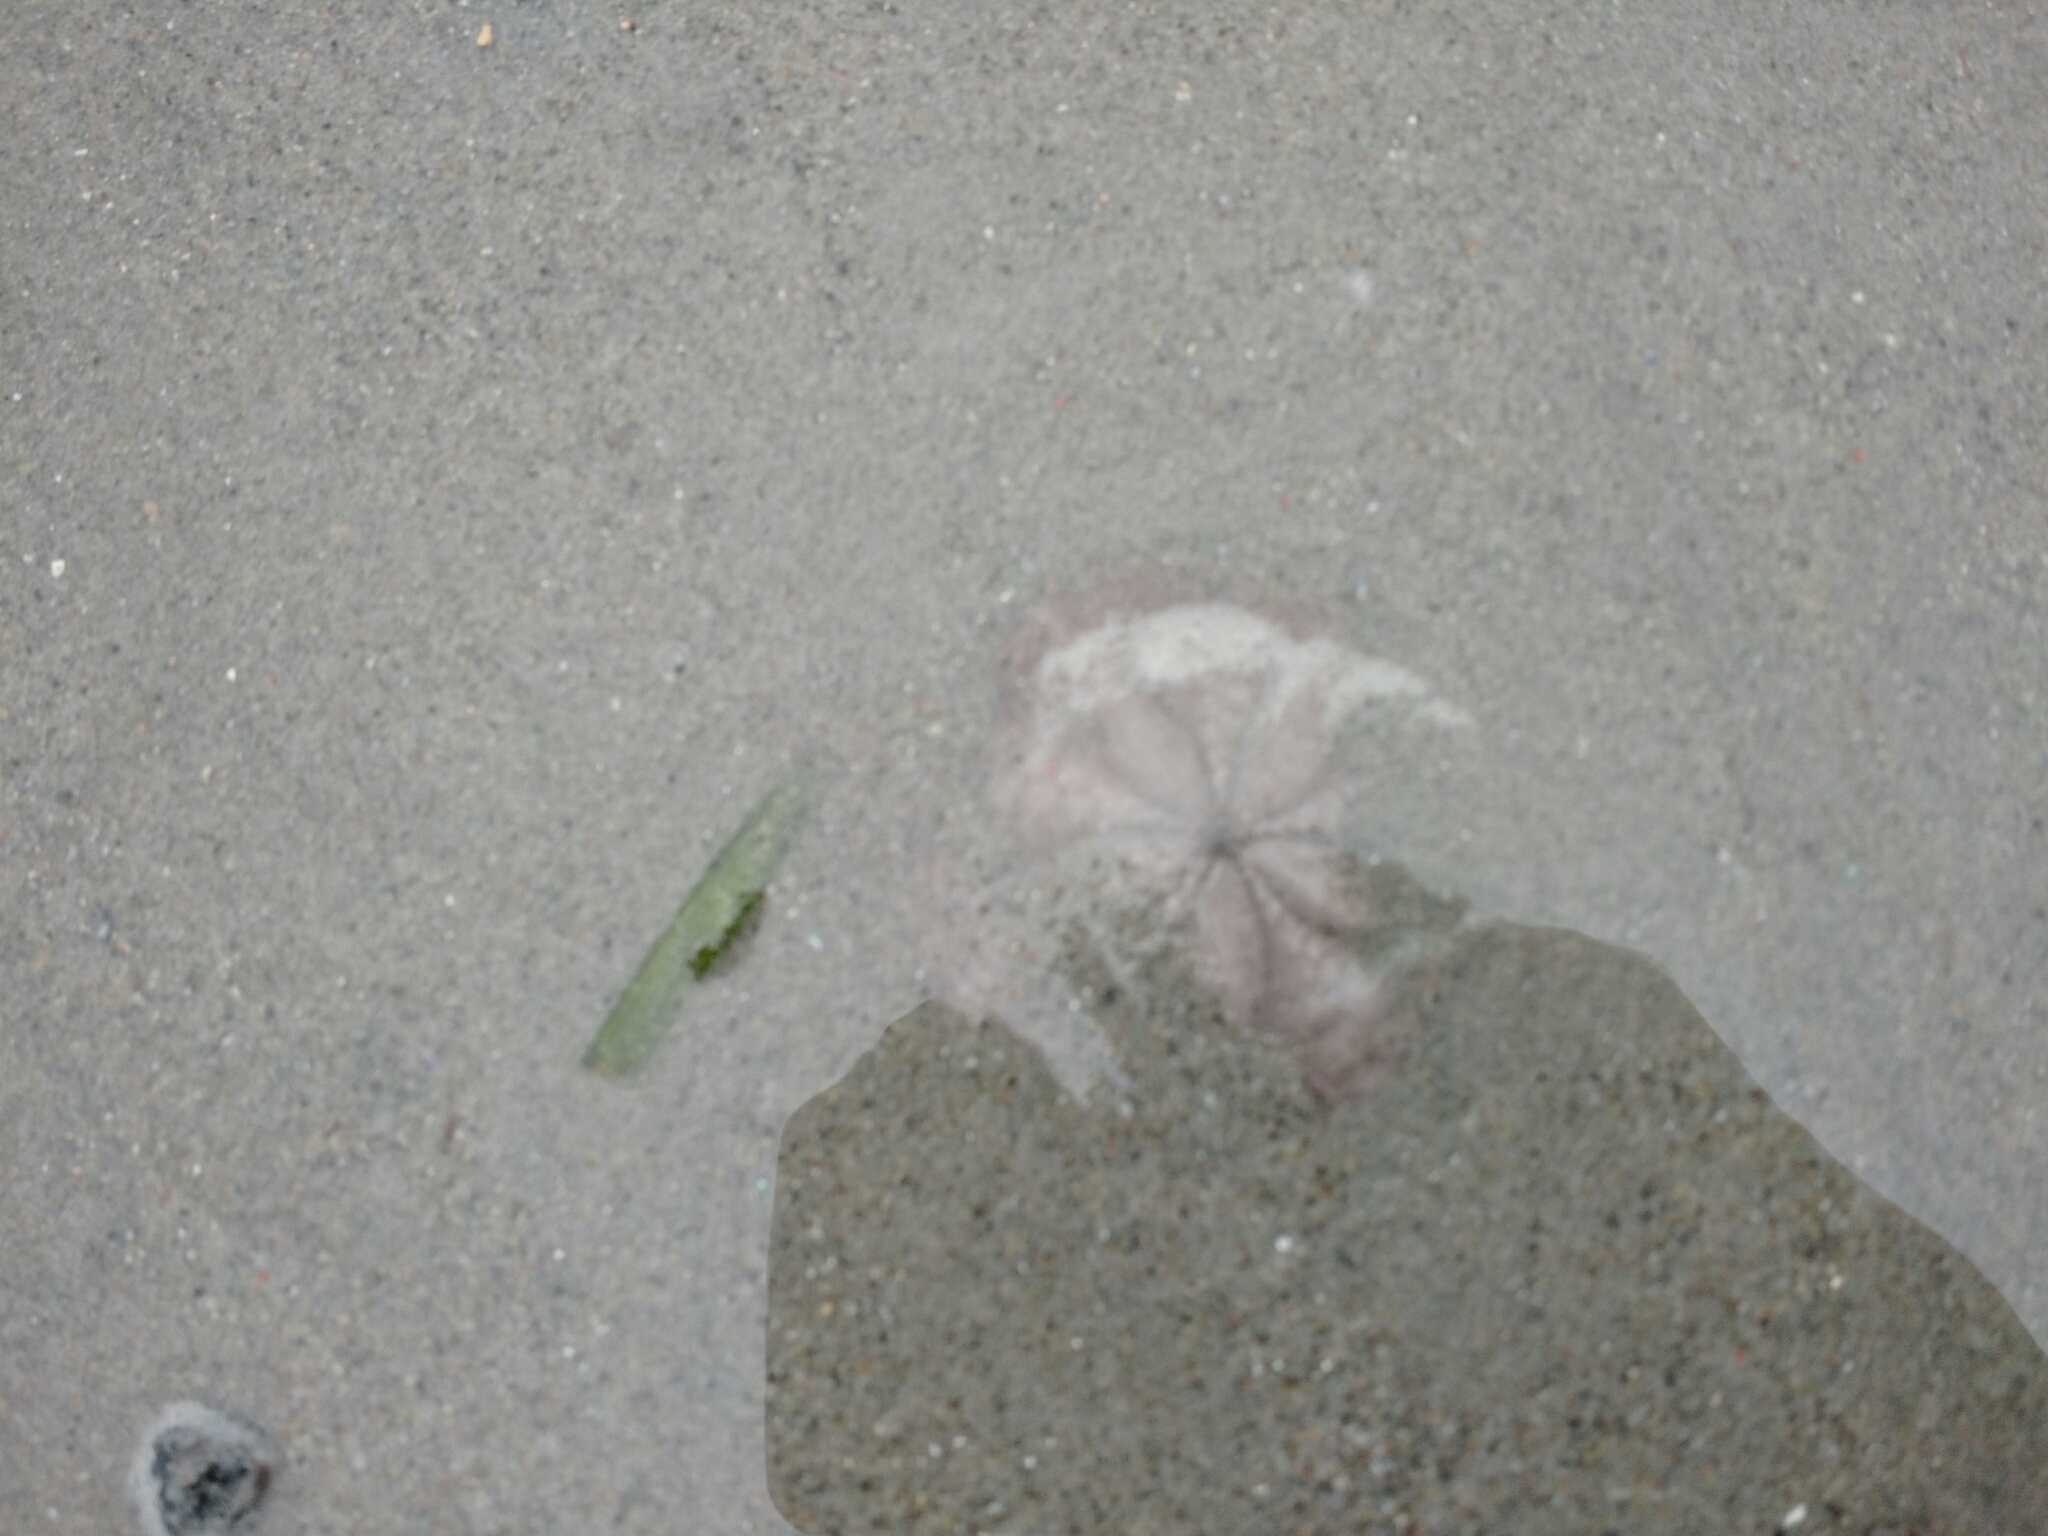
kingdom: Animalia
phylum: Echinodermata
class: Echinoidea
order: Echinolampadacea
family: Echinarachniidae
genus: Echinarachnius
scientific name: Echinarachnius parma
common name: Common sand dollar
